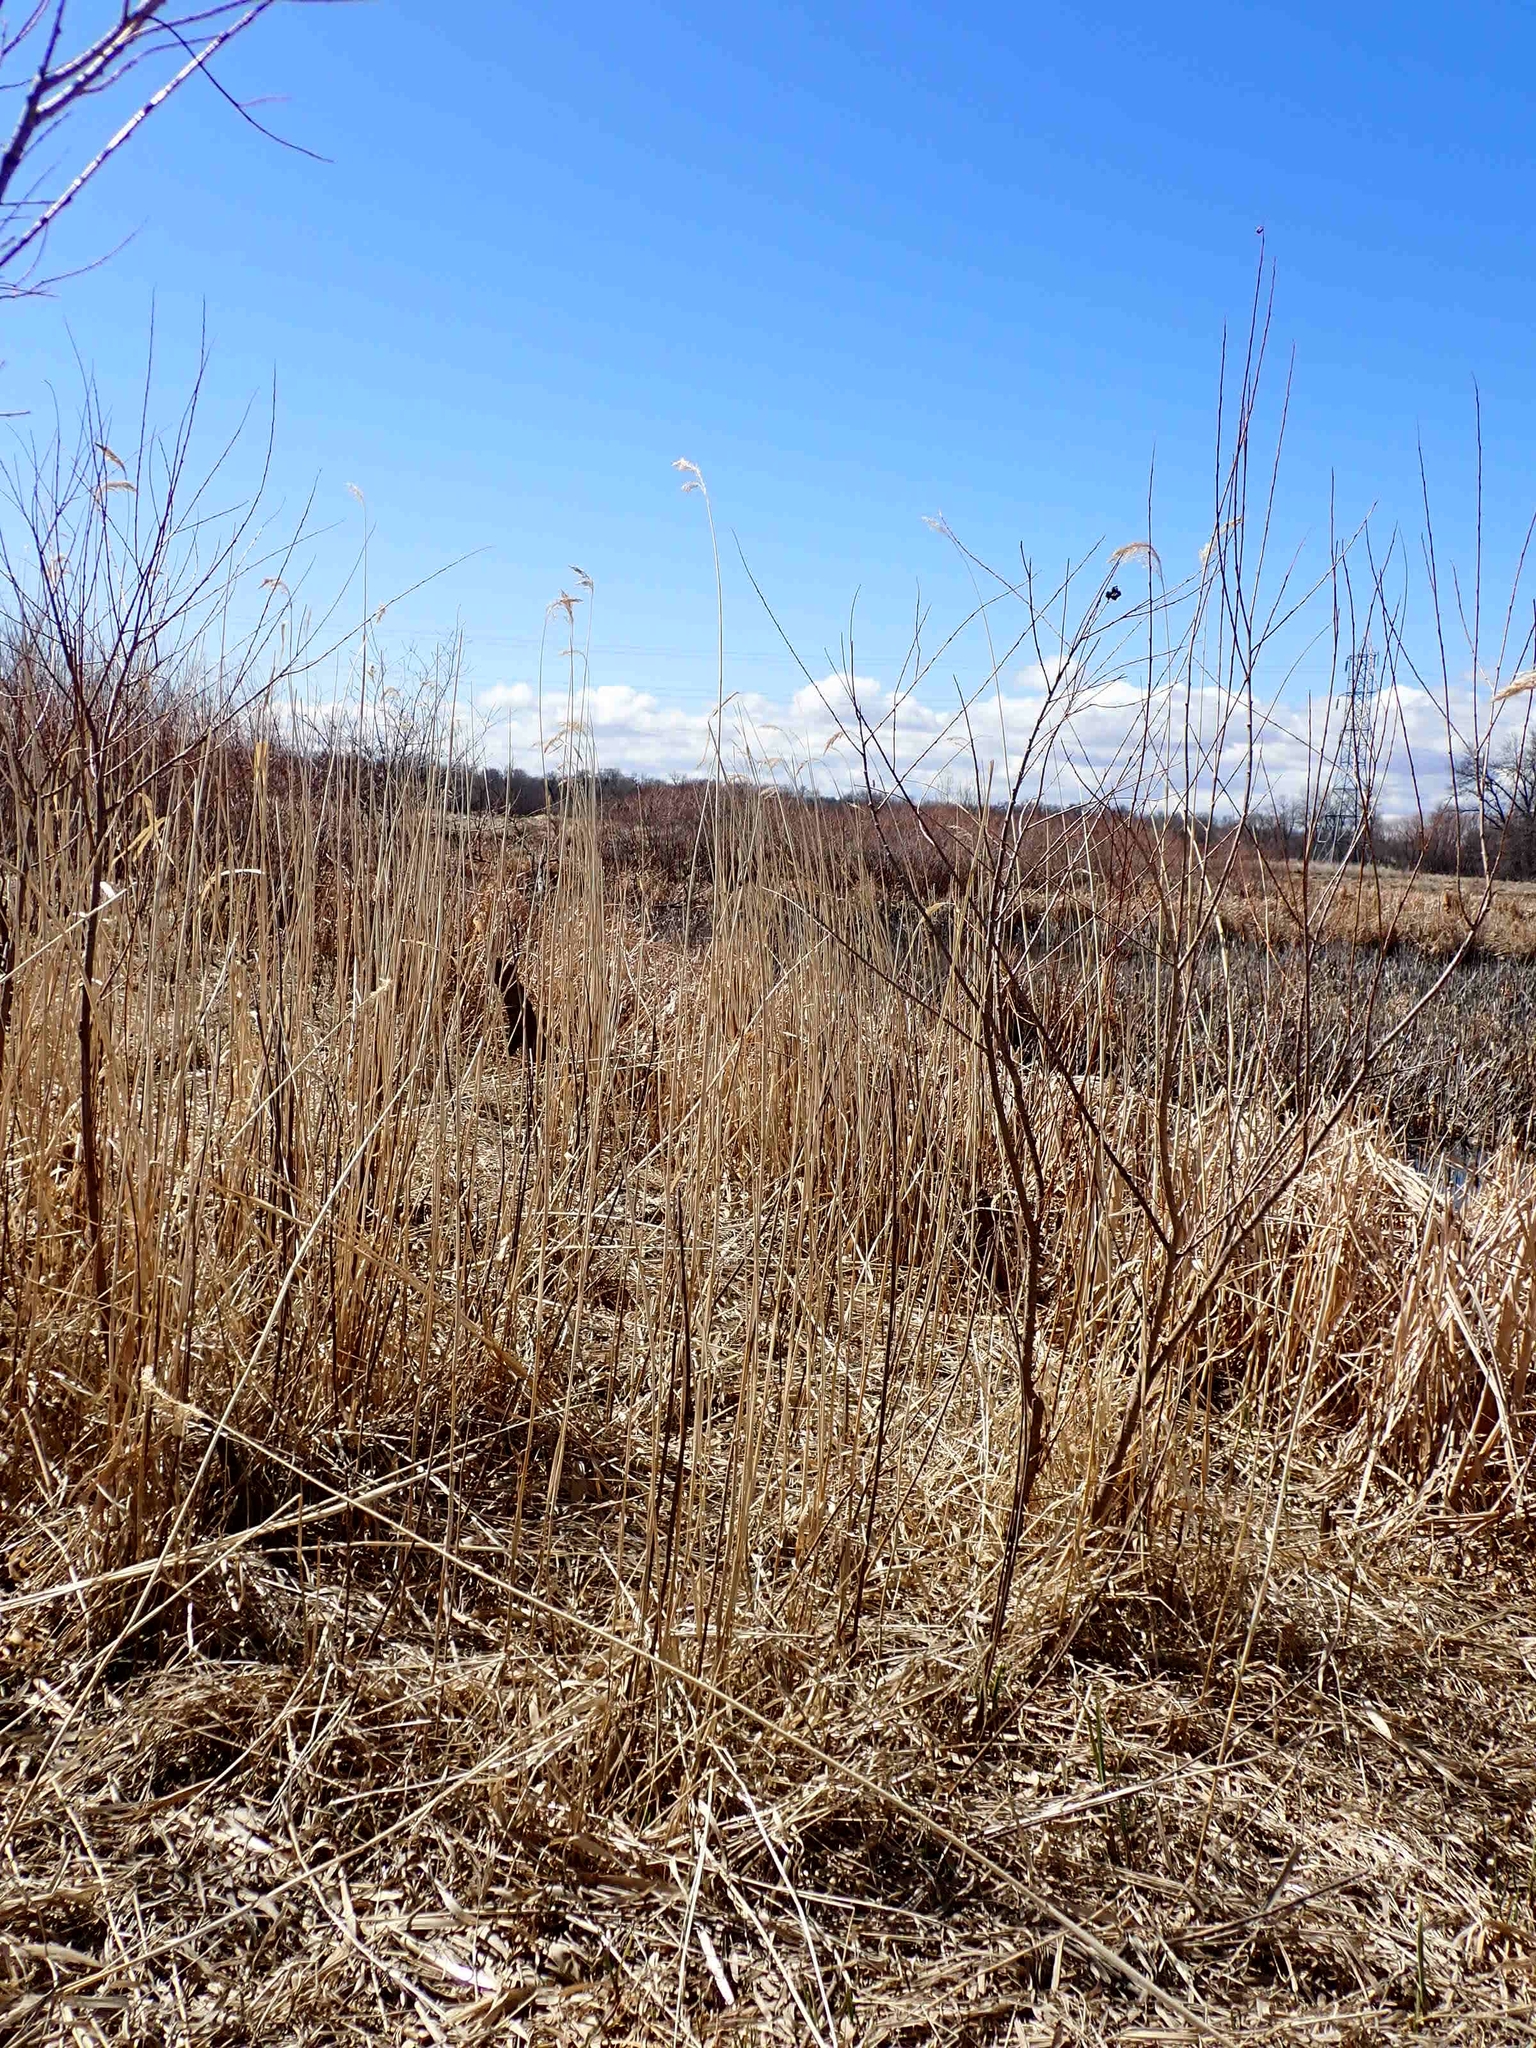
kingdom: Plantae
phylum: Tracheophyta
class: Liliopsida
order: Poales
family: Poaceae
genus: Phragmites
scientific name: Phragmites australis
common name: Common reed
